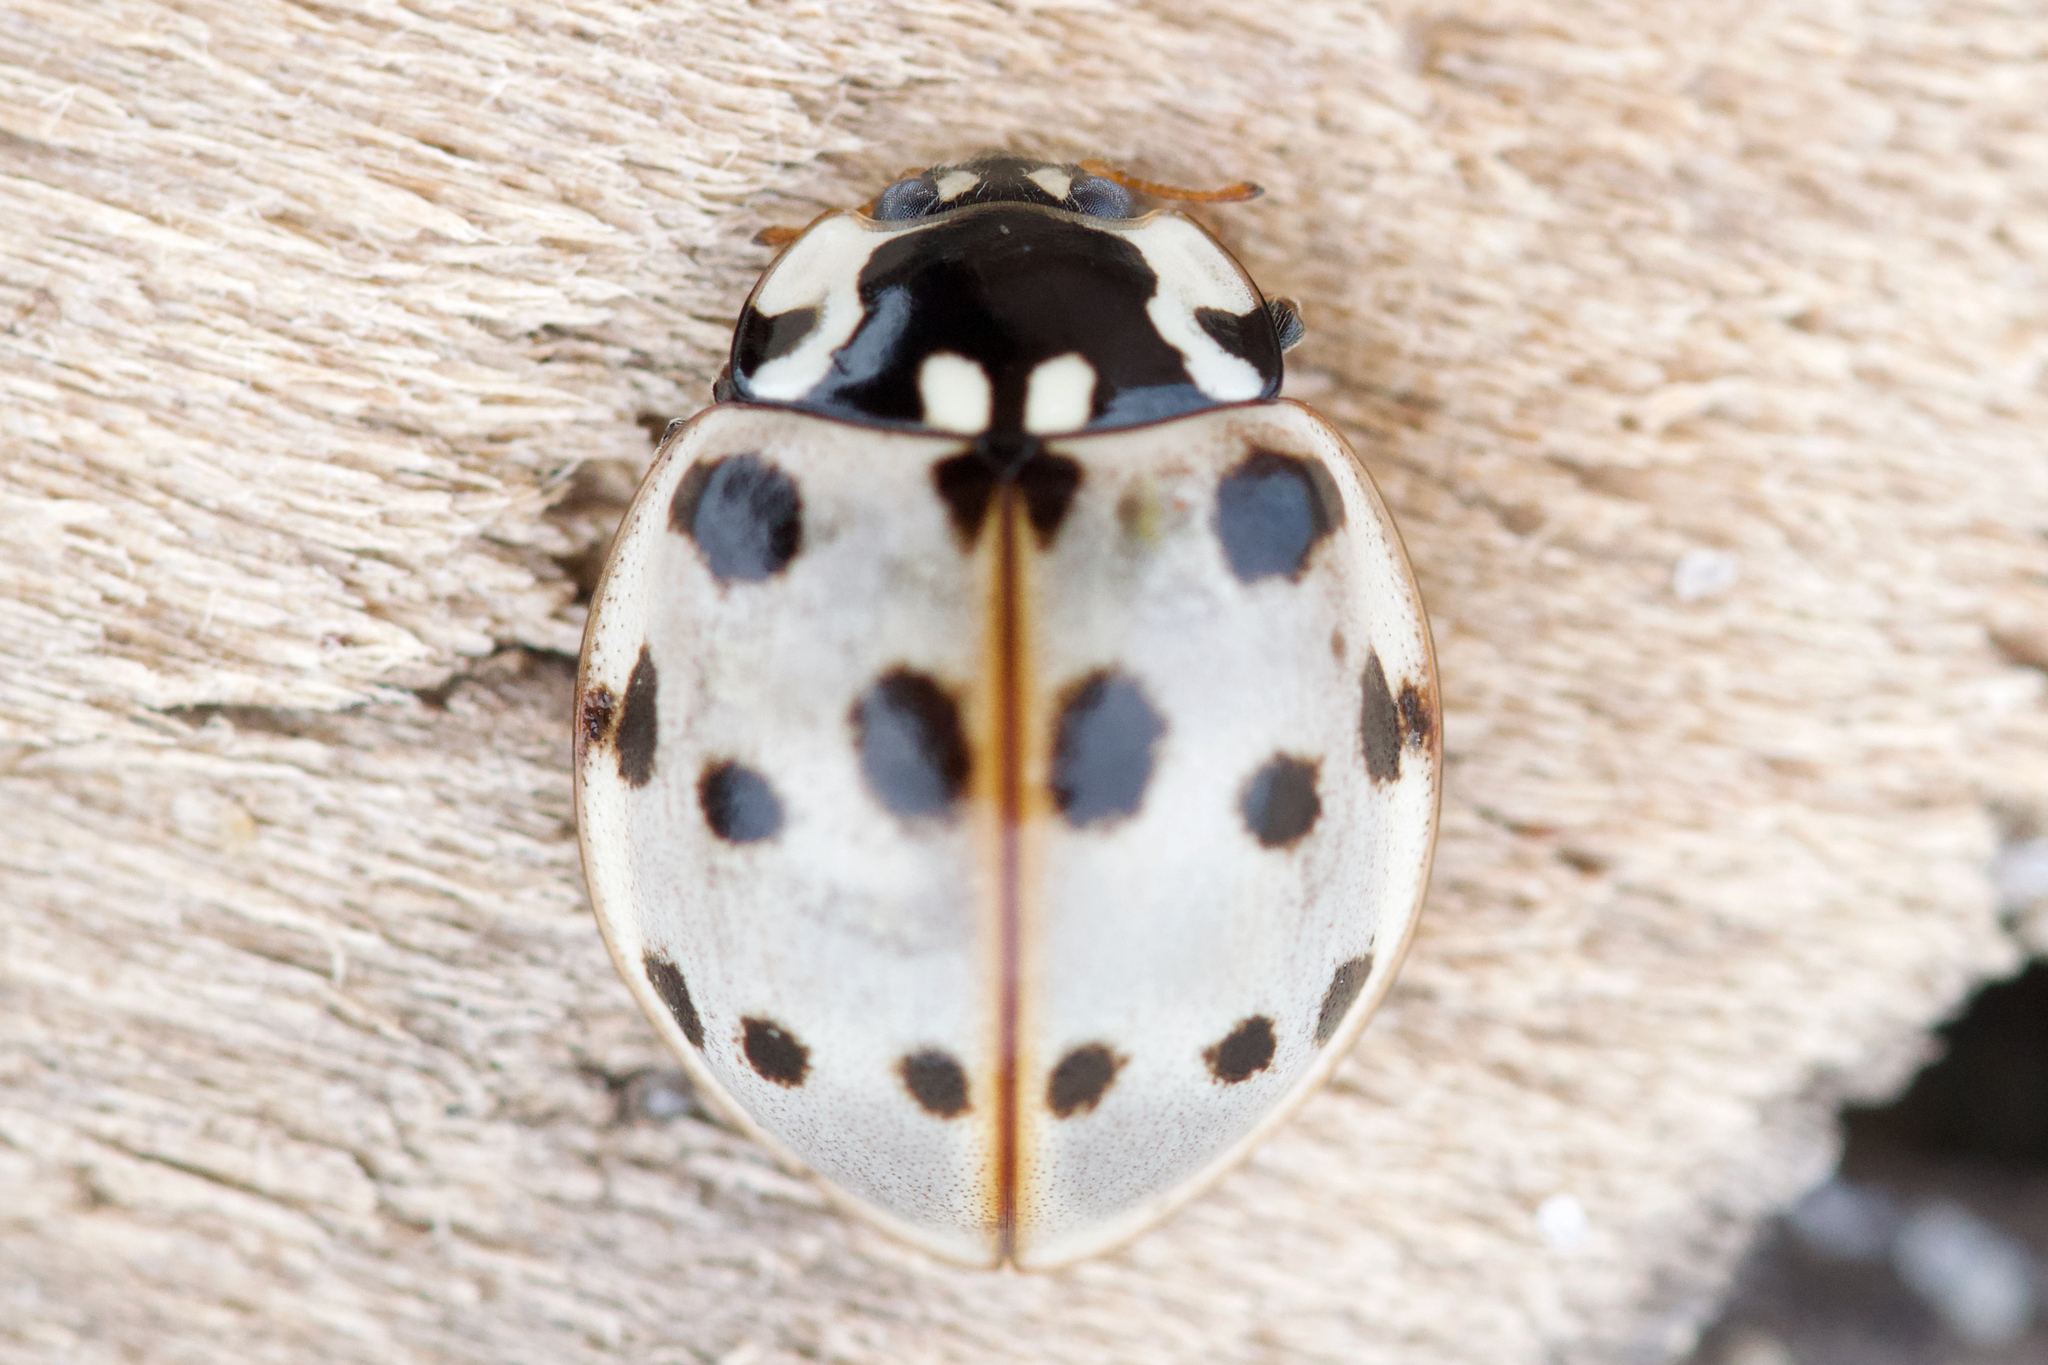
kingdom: Animalia
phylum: Arthropoda
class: Insecta
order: Coleoptera
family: Coccinellidae
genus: Anatis
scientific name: Anatis labiculata
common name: Fifteen-spotted lady beetle
